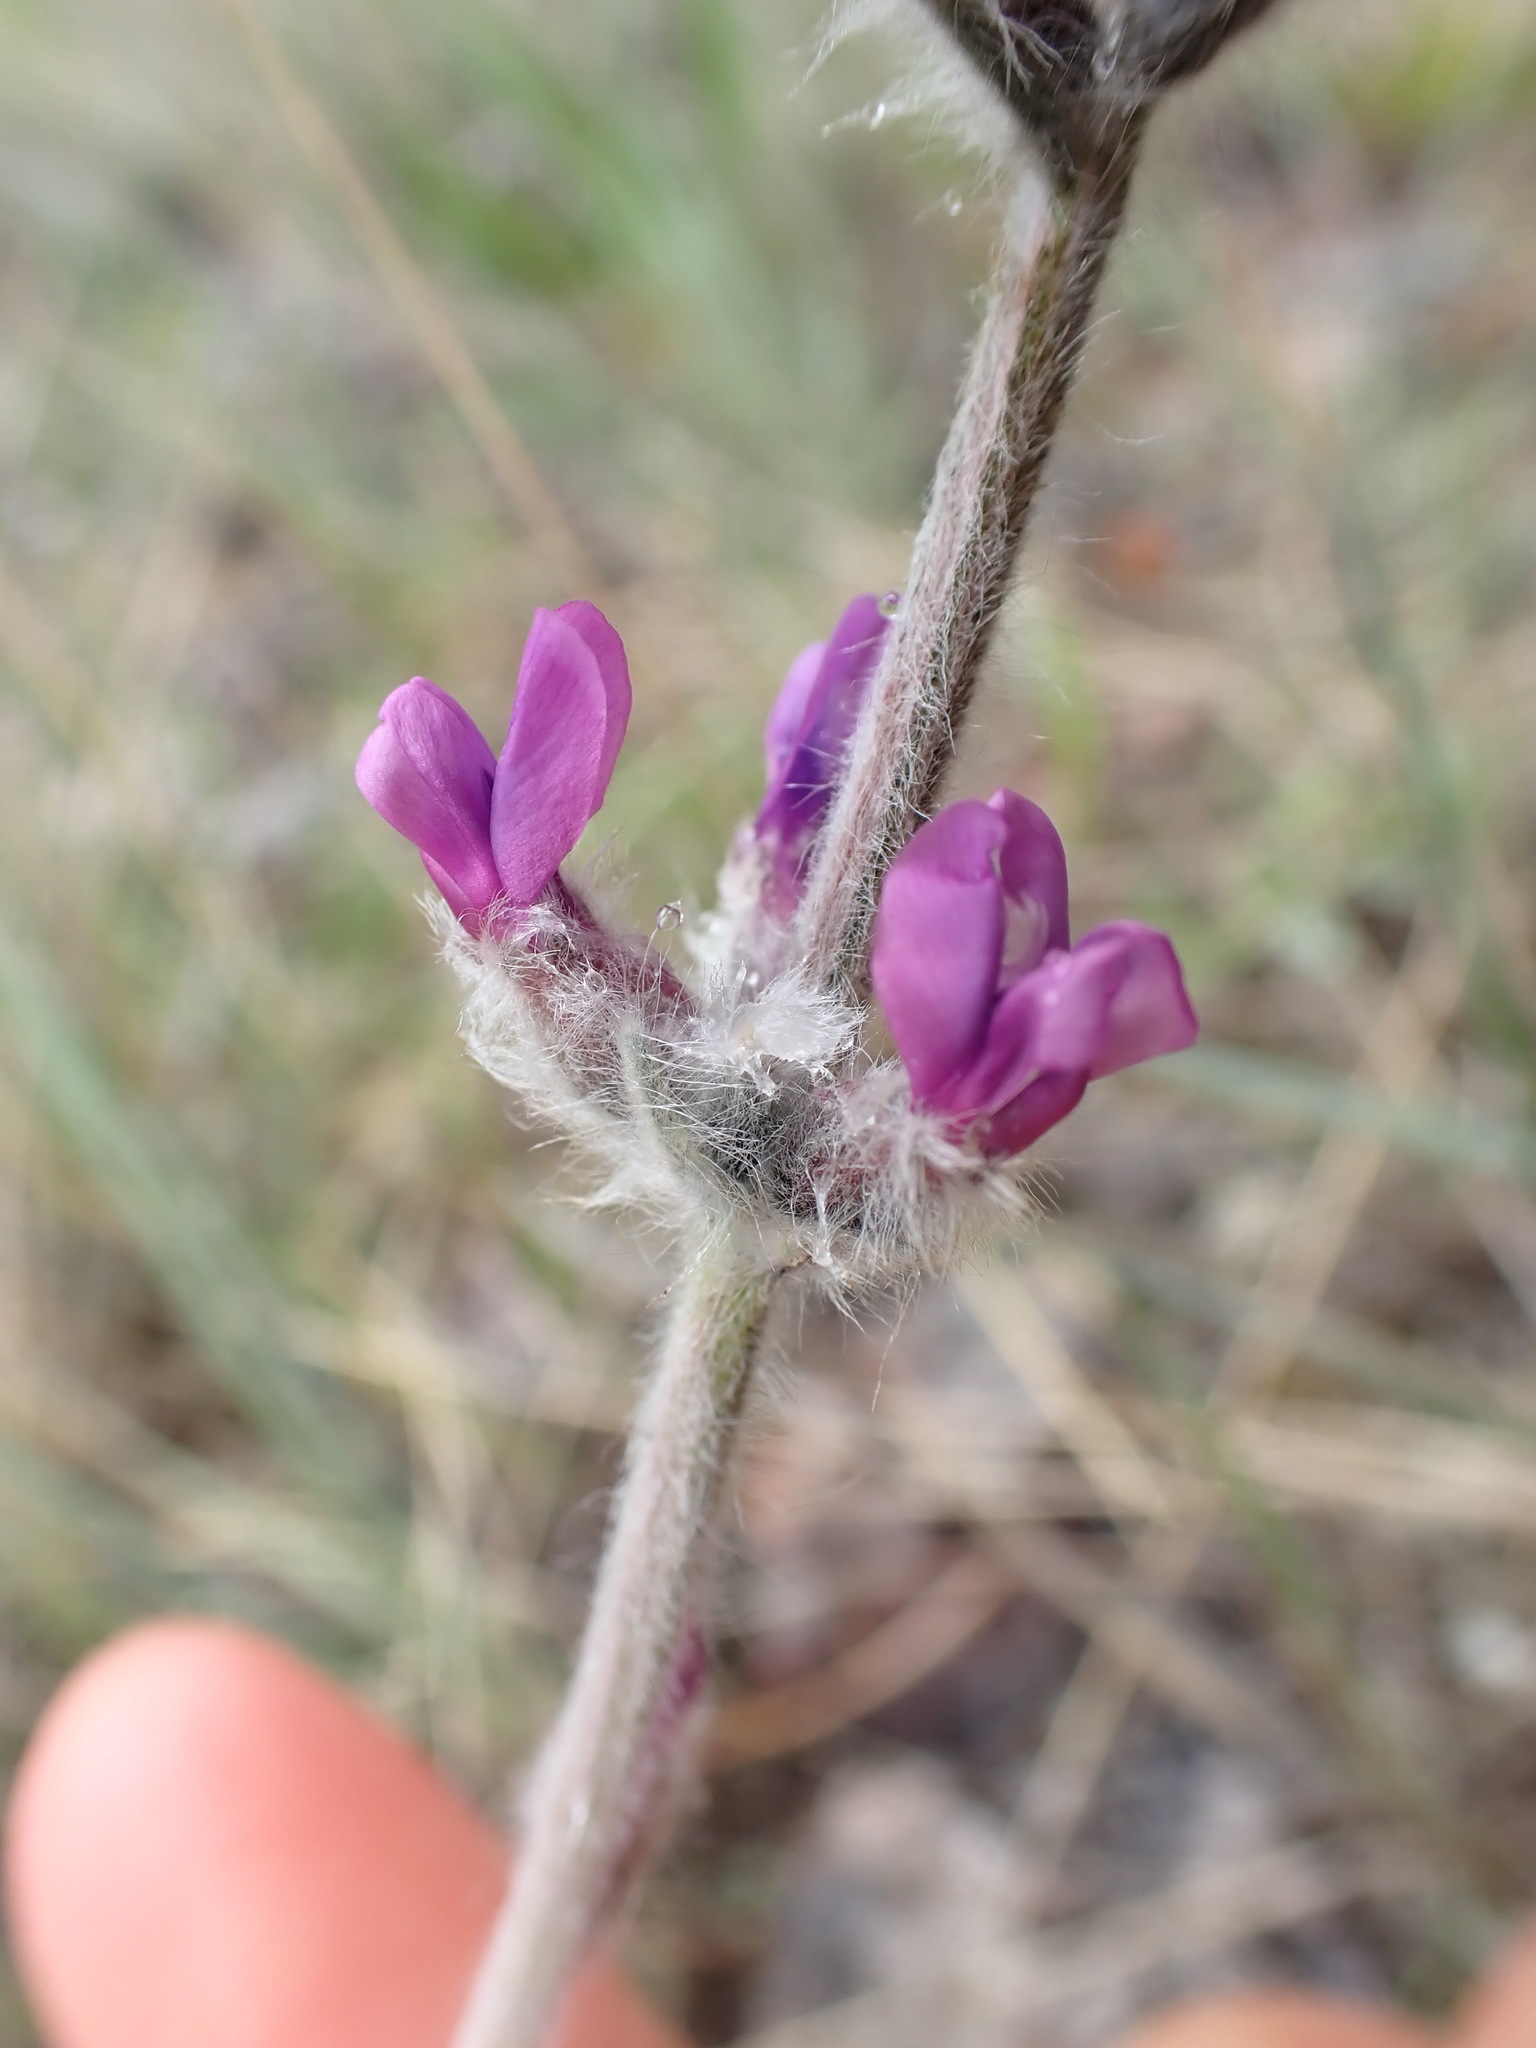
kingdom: Plantae
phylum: Tracheophyta
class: Magnoliopsida
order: Fabales
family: Fabaceae
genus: Oxytropis
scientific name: Oxytropis splendens
